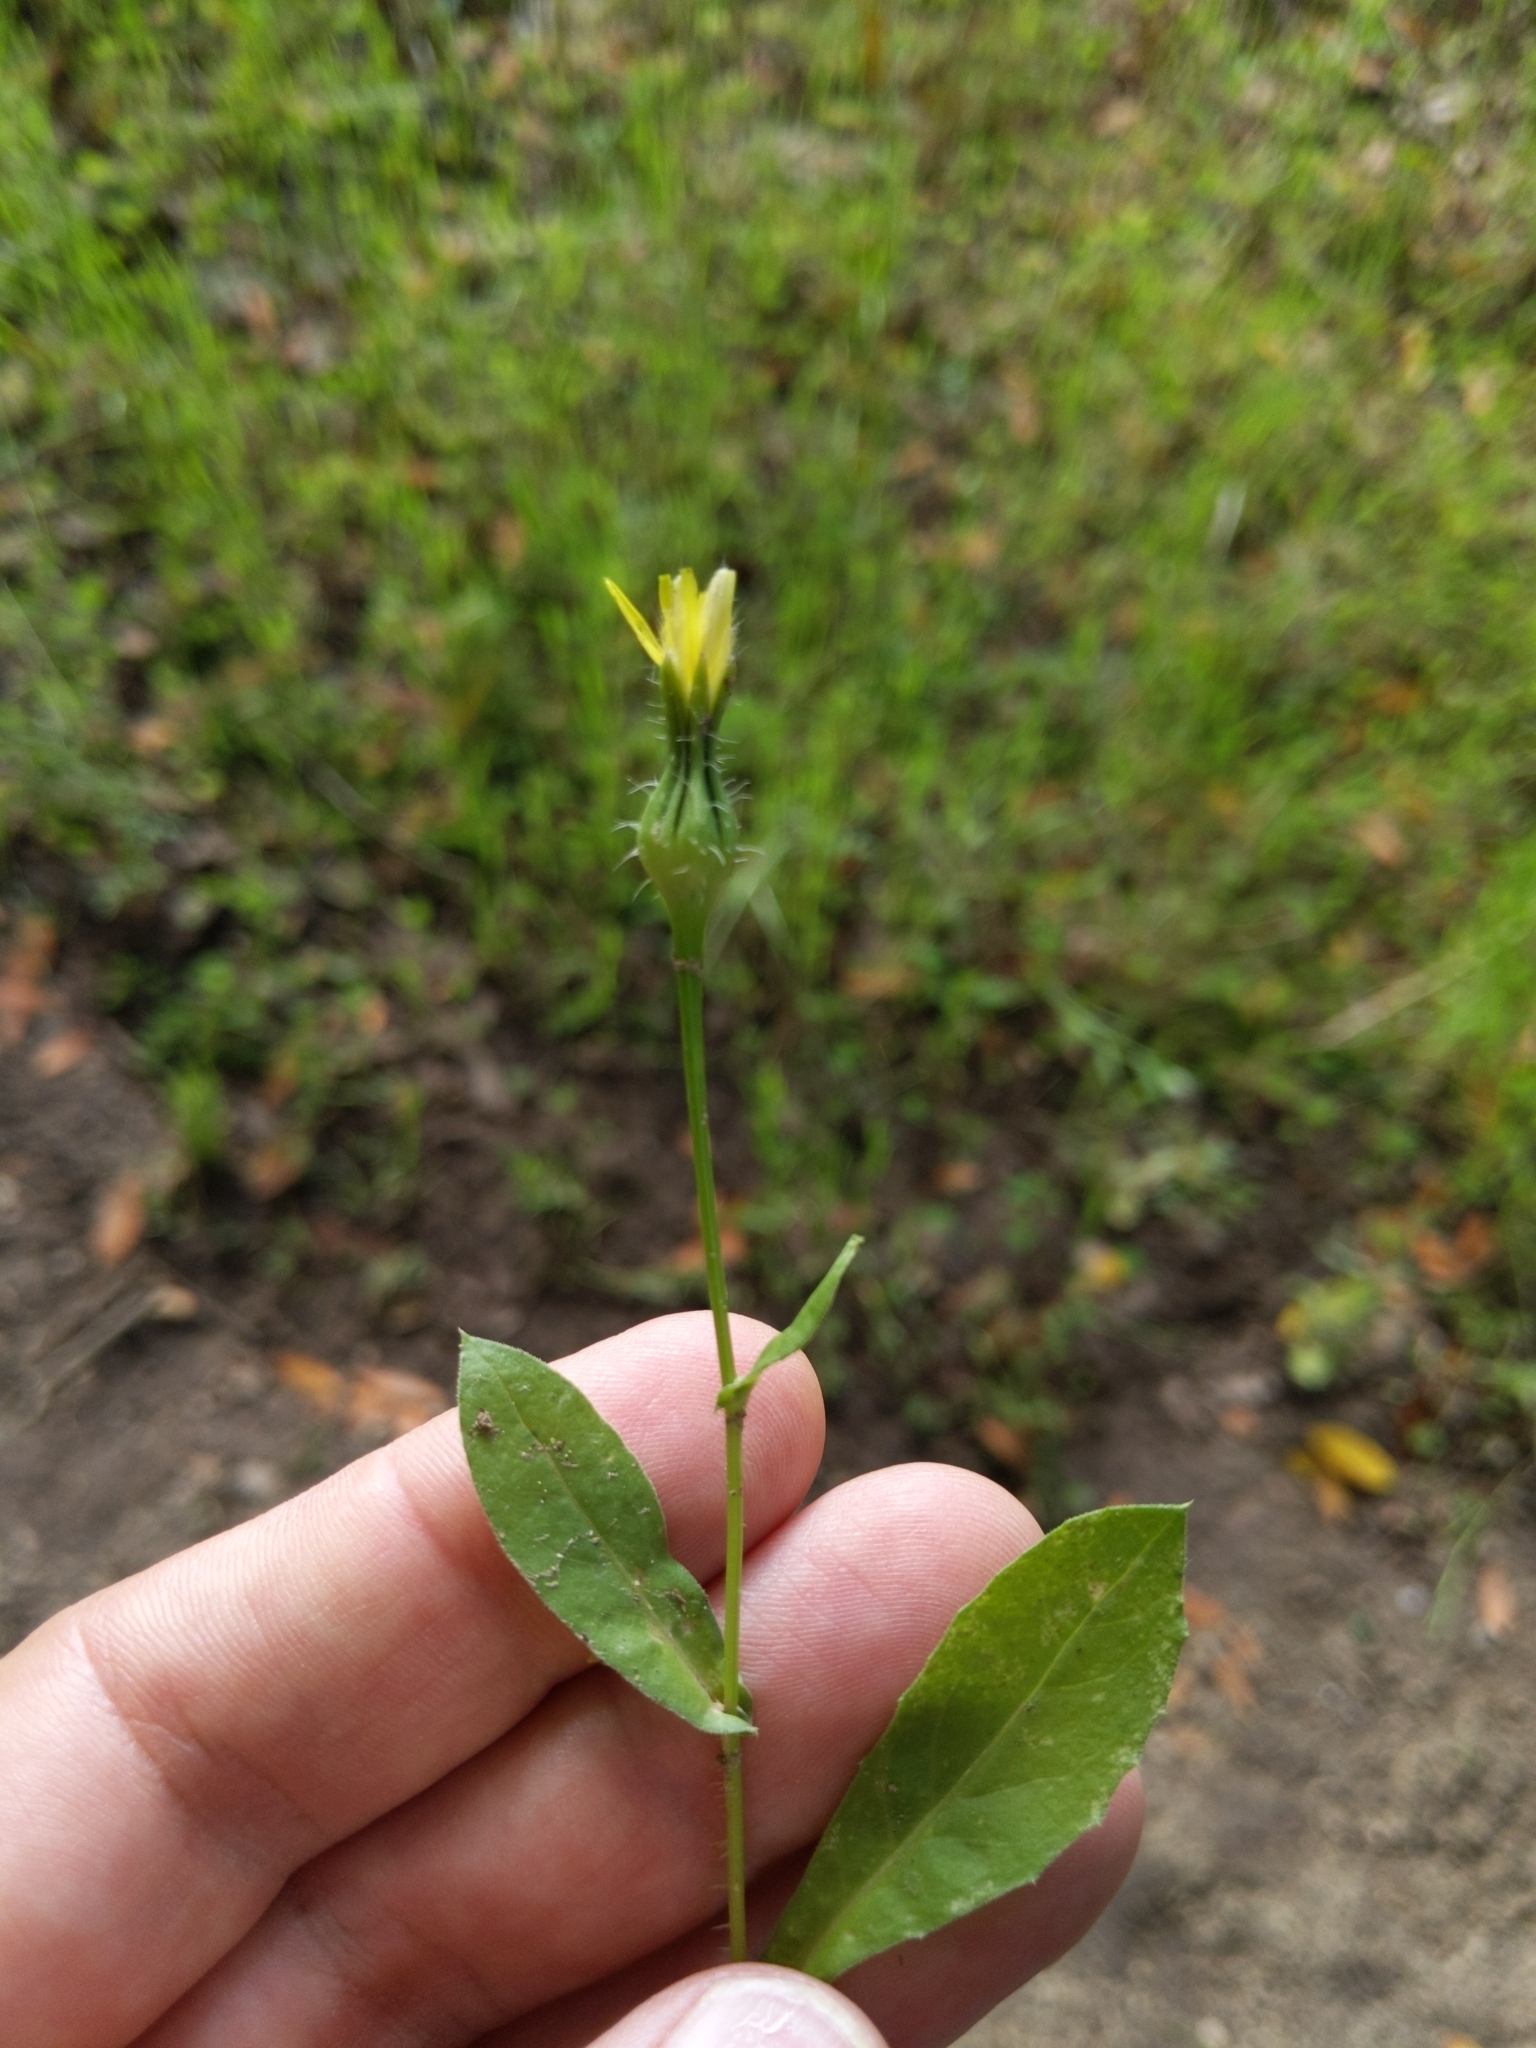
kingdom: Plantae
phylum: Tracheophyta
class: Magnoliopsida
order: Asterales
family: Asteraceae
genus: Urospermum
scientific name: Urospermum picroides
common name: False hawkbit
